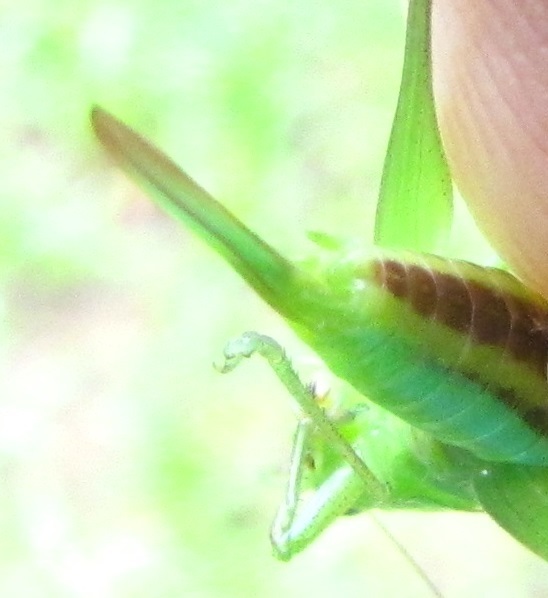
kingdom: Animalia
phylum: Arthropoda
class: Insecta
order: Orthoptera
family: Tettigoniidae
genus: Conocephalus
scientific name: Conocephalus fasciatus
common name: Slender meadow katydid
